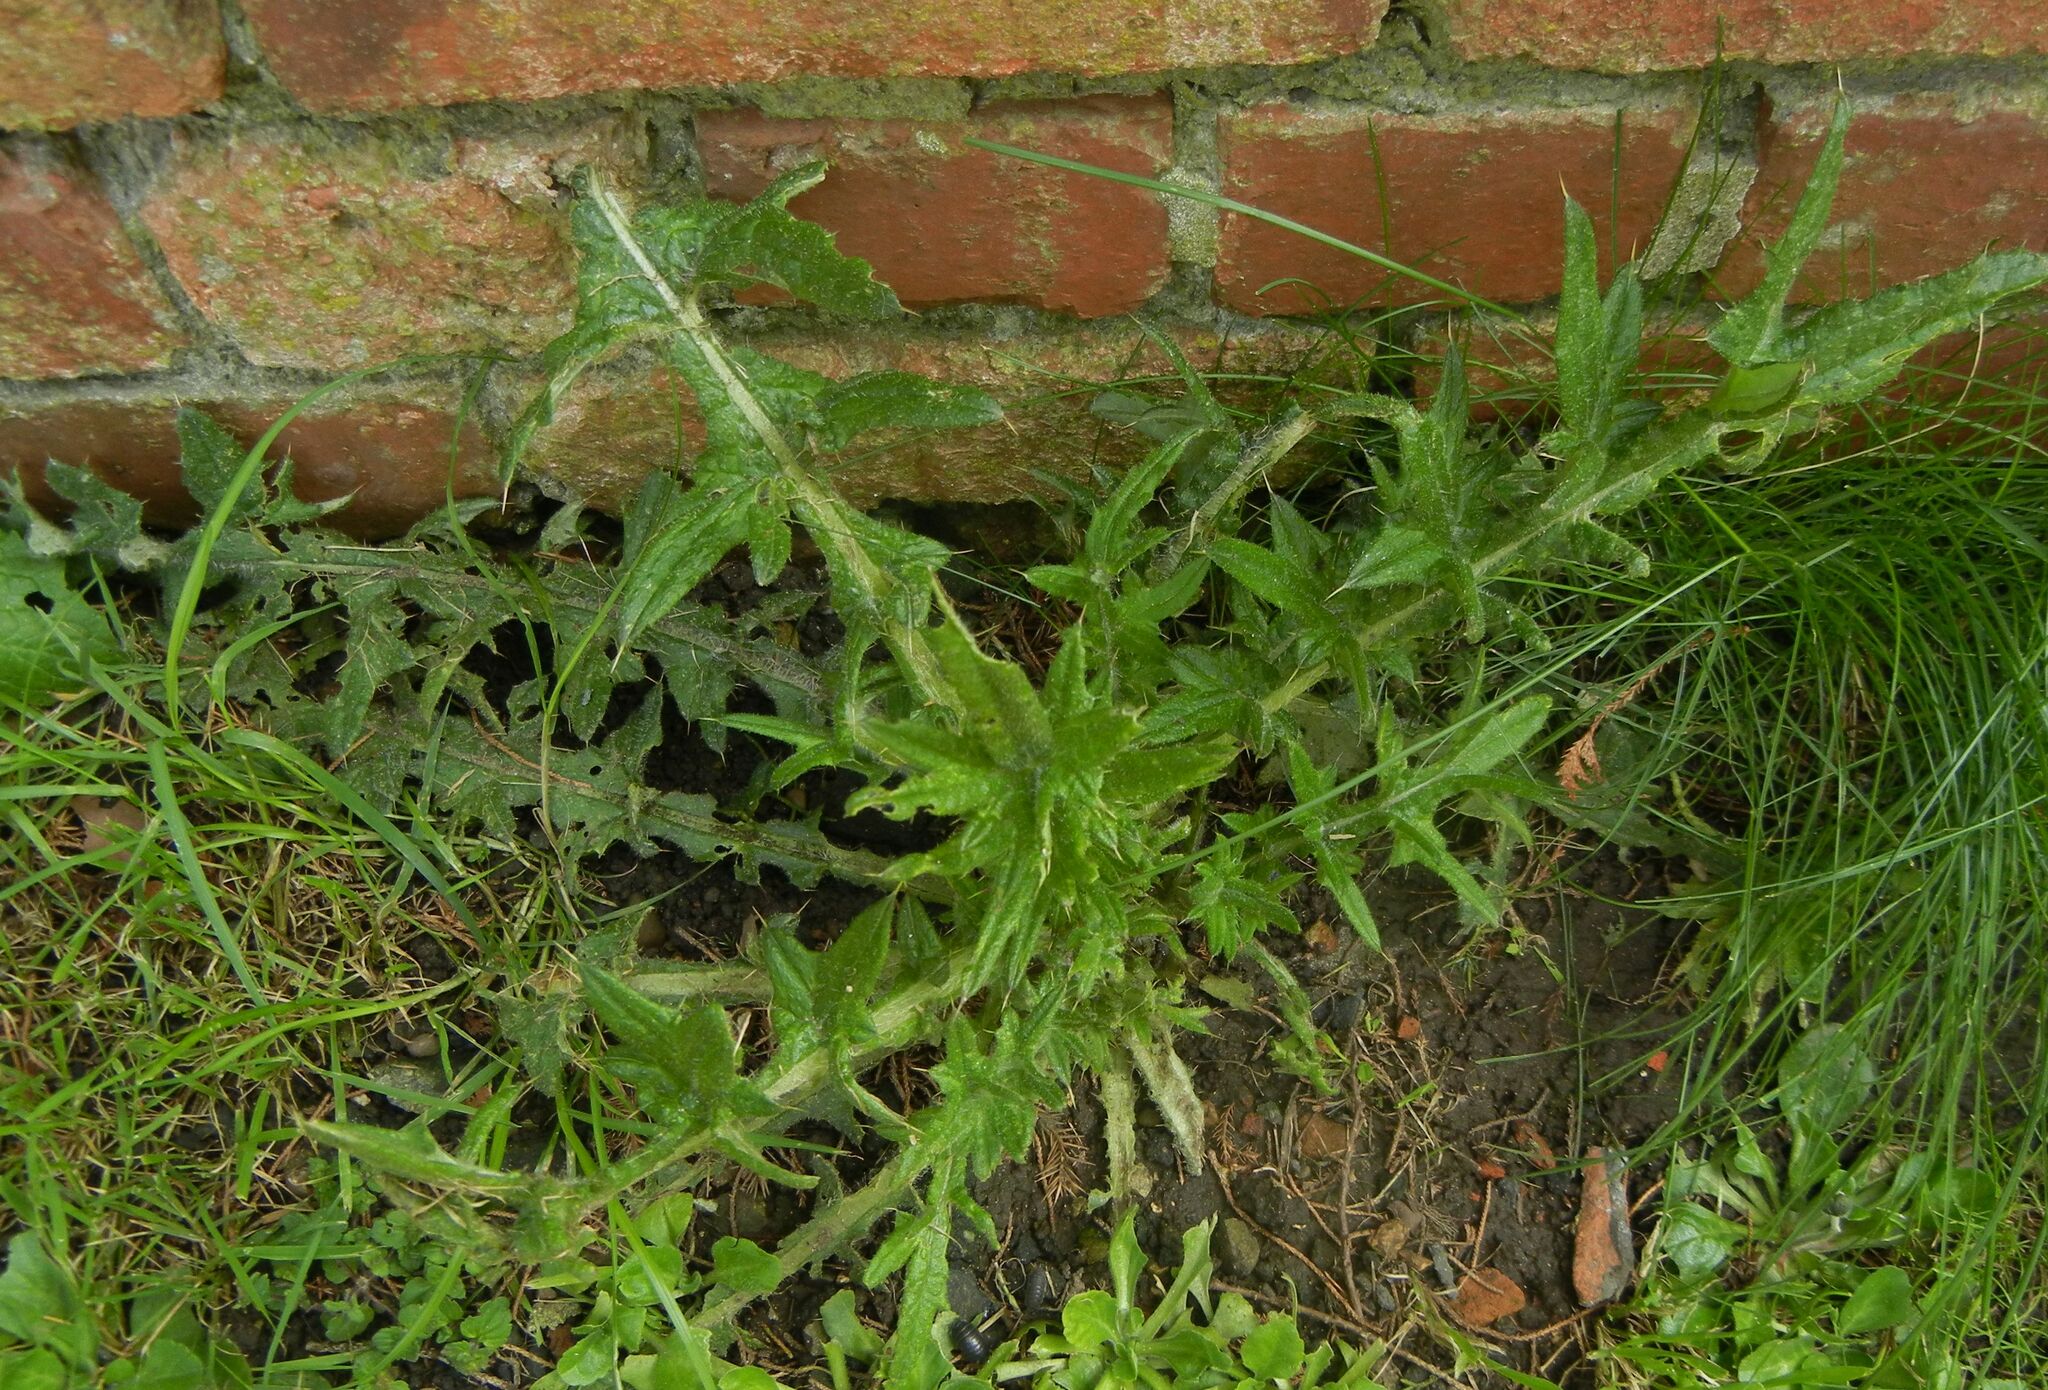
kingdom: Plantae
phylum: Tracheophyta
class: Magnoliopsida
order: Asterales
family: Asteraceae
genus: Cirsium
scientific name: Cirsium vulgare
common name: Bull thistle
